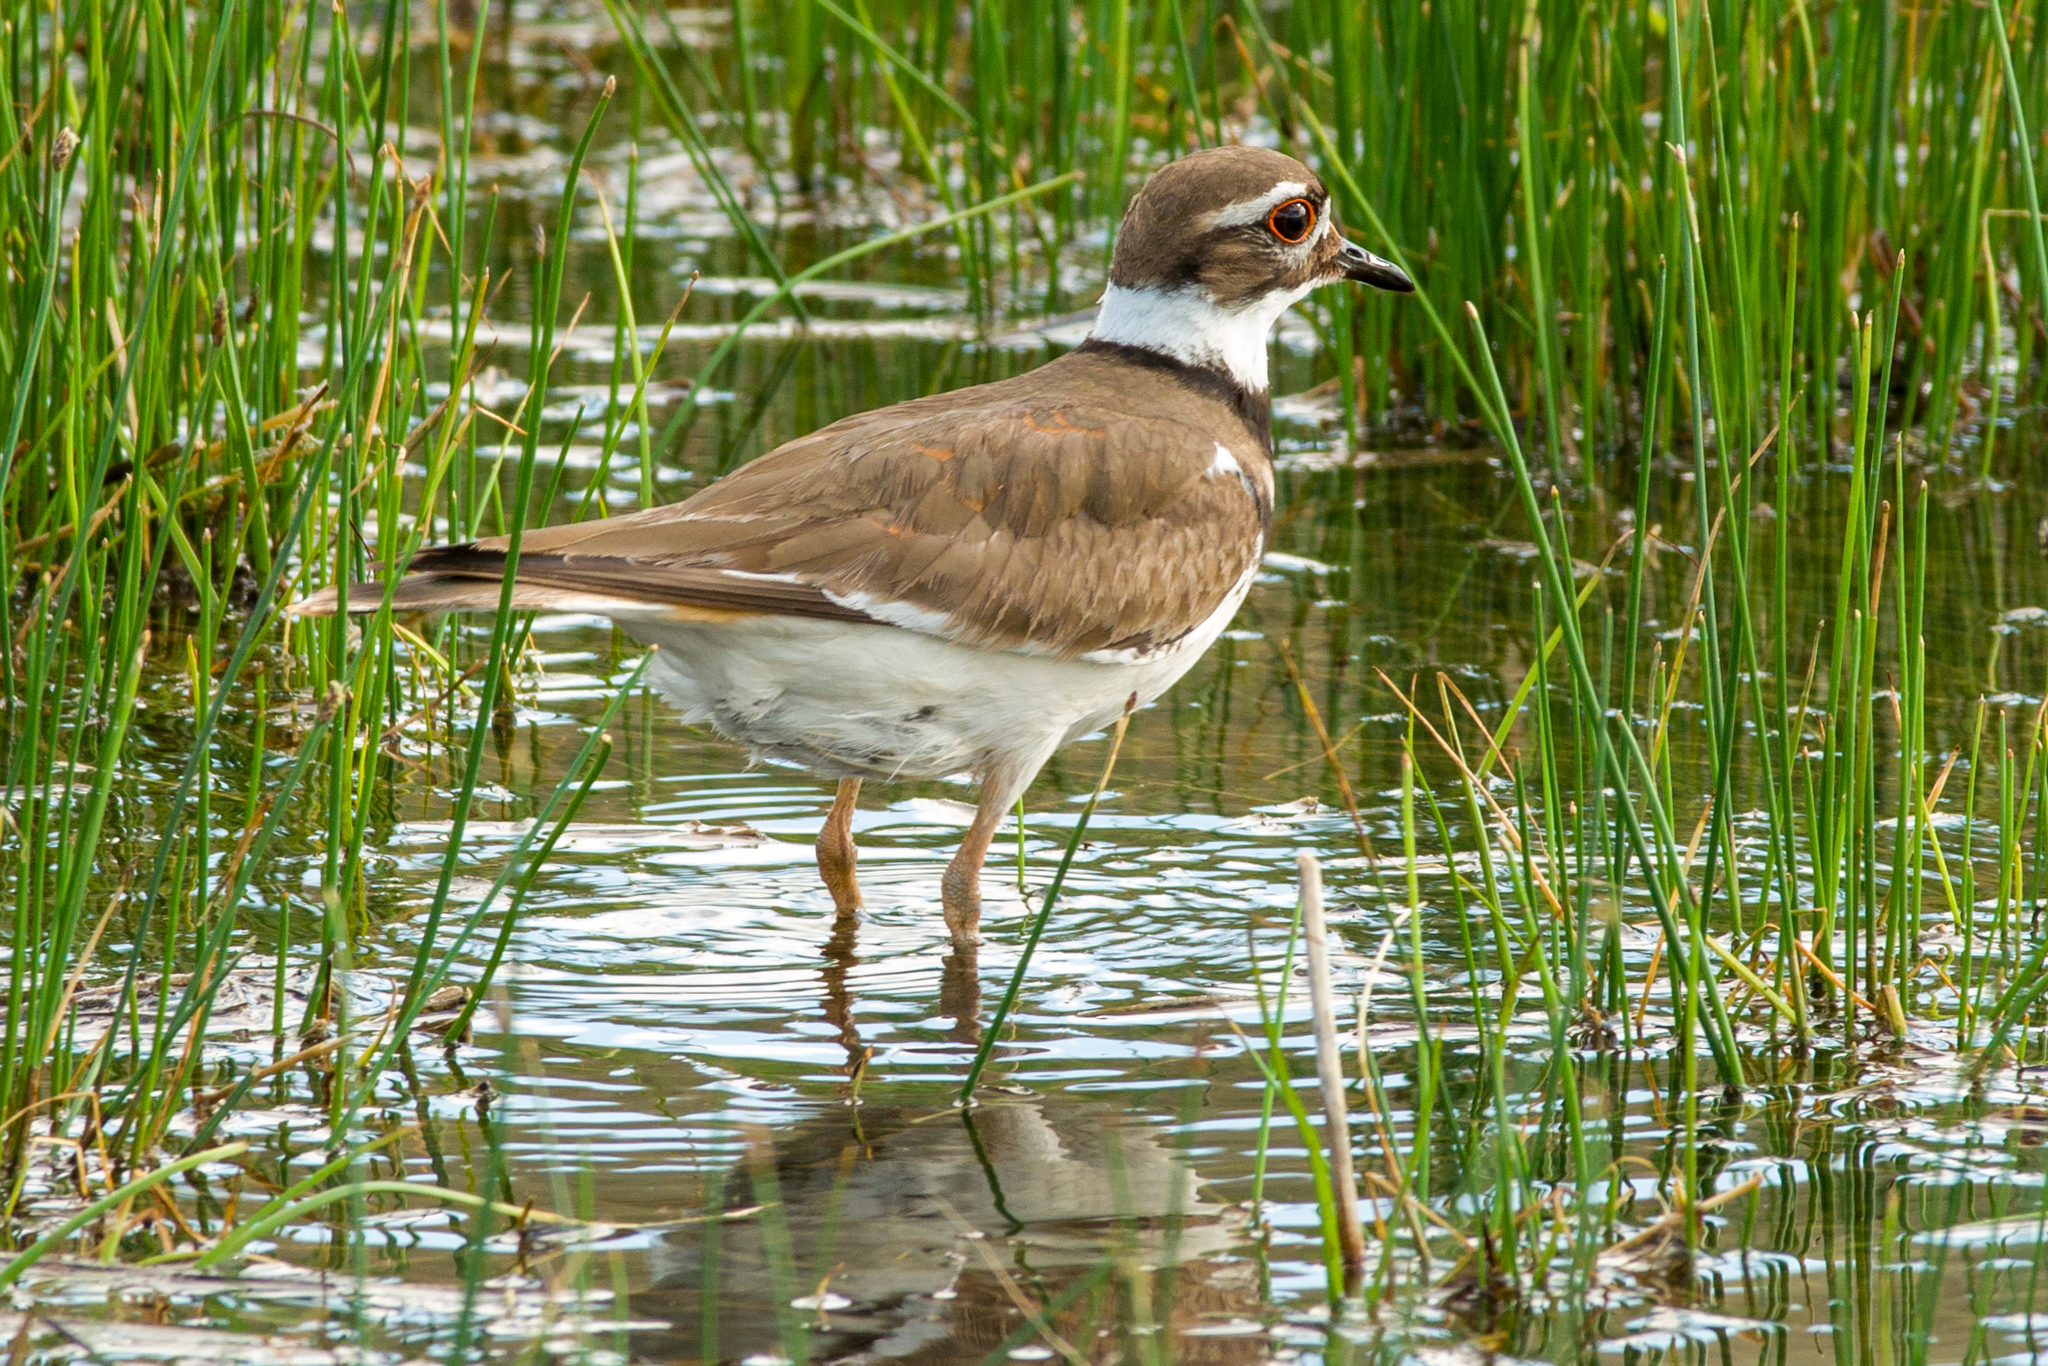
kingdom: Animalia
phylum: Chordata
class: Aves
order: Charadriiformes
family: Charadriidae
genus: Charadrius
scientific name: Charadrius vociferus
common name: Killdeer
